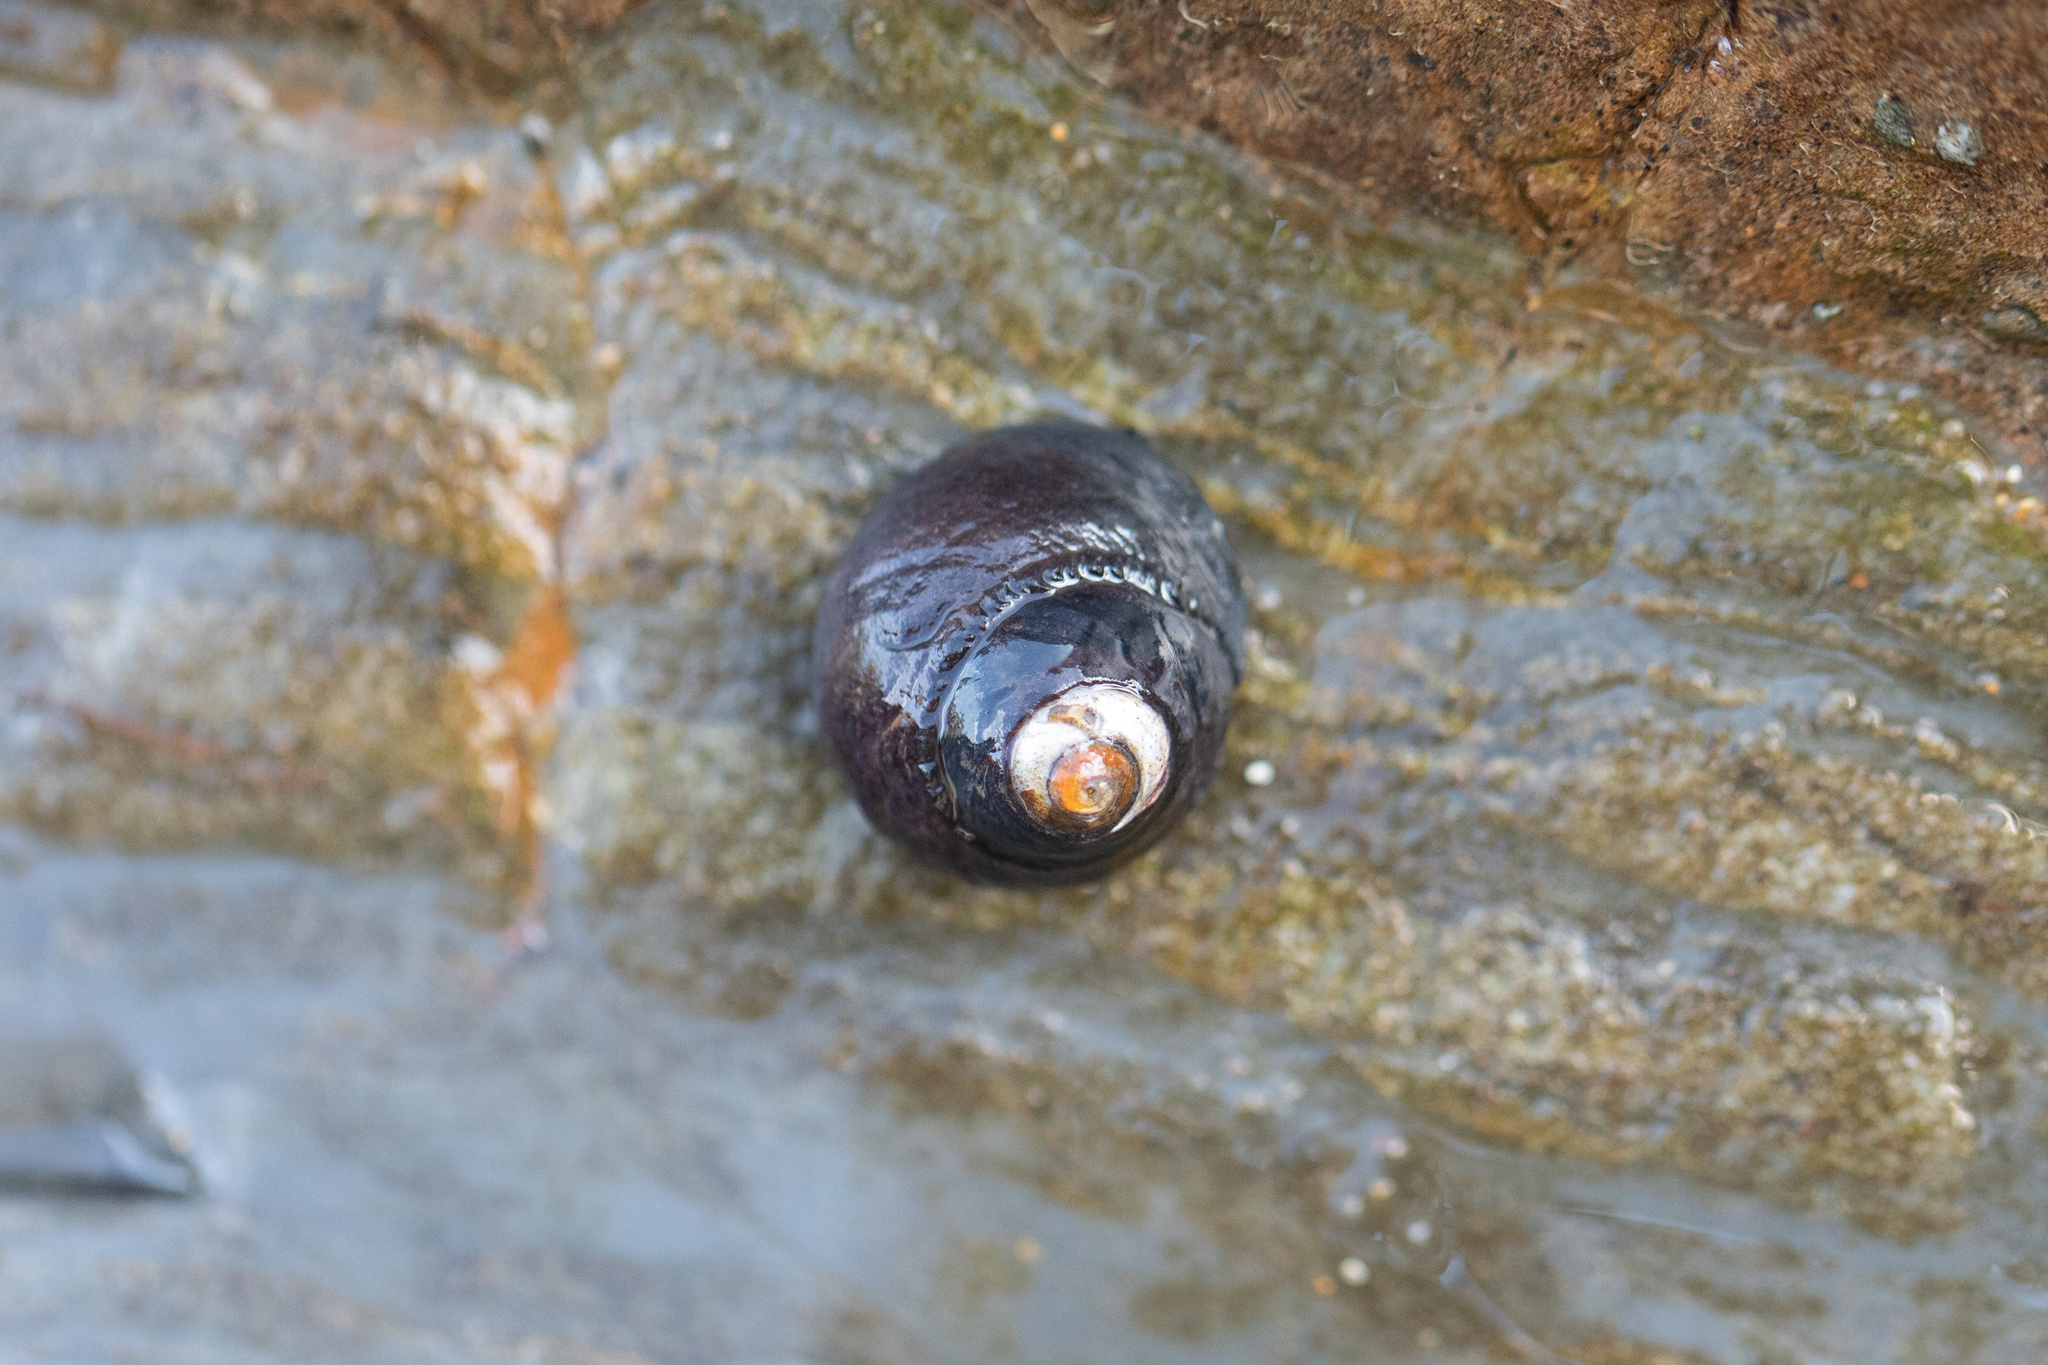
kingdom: Animalia
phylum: Mollusca
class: Gastropoda
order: Trochida
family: Tegulidae
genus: Tegula
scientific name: Tegula funebralis
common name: Black tegula
